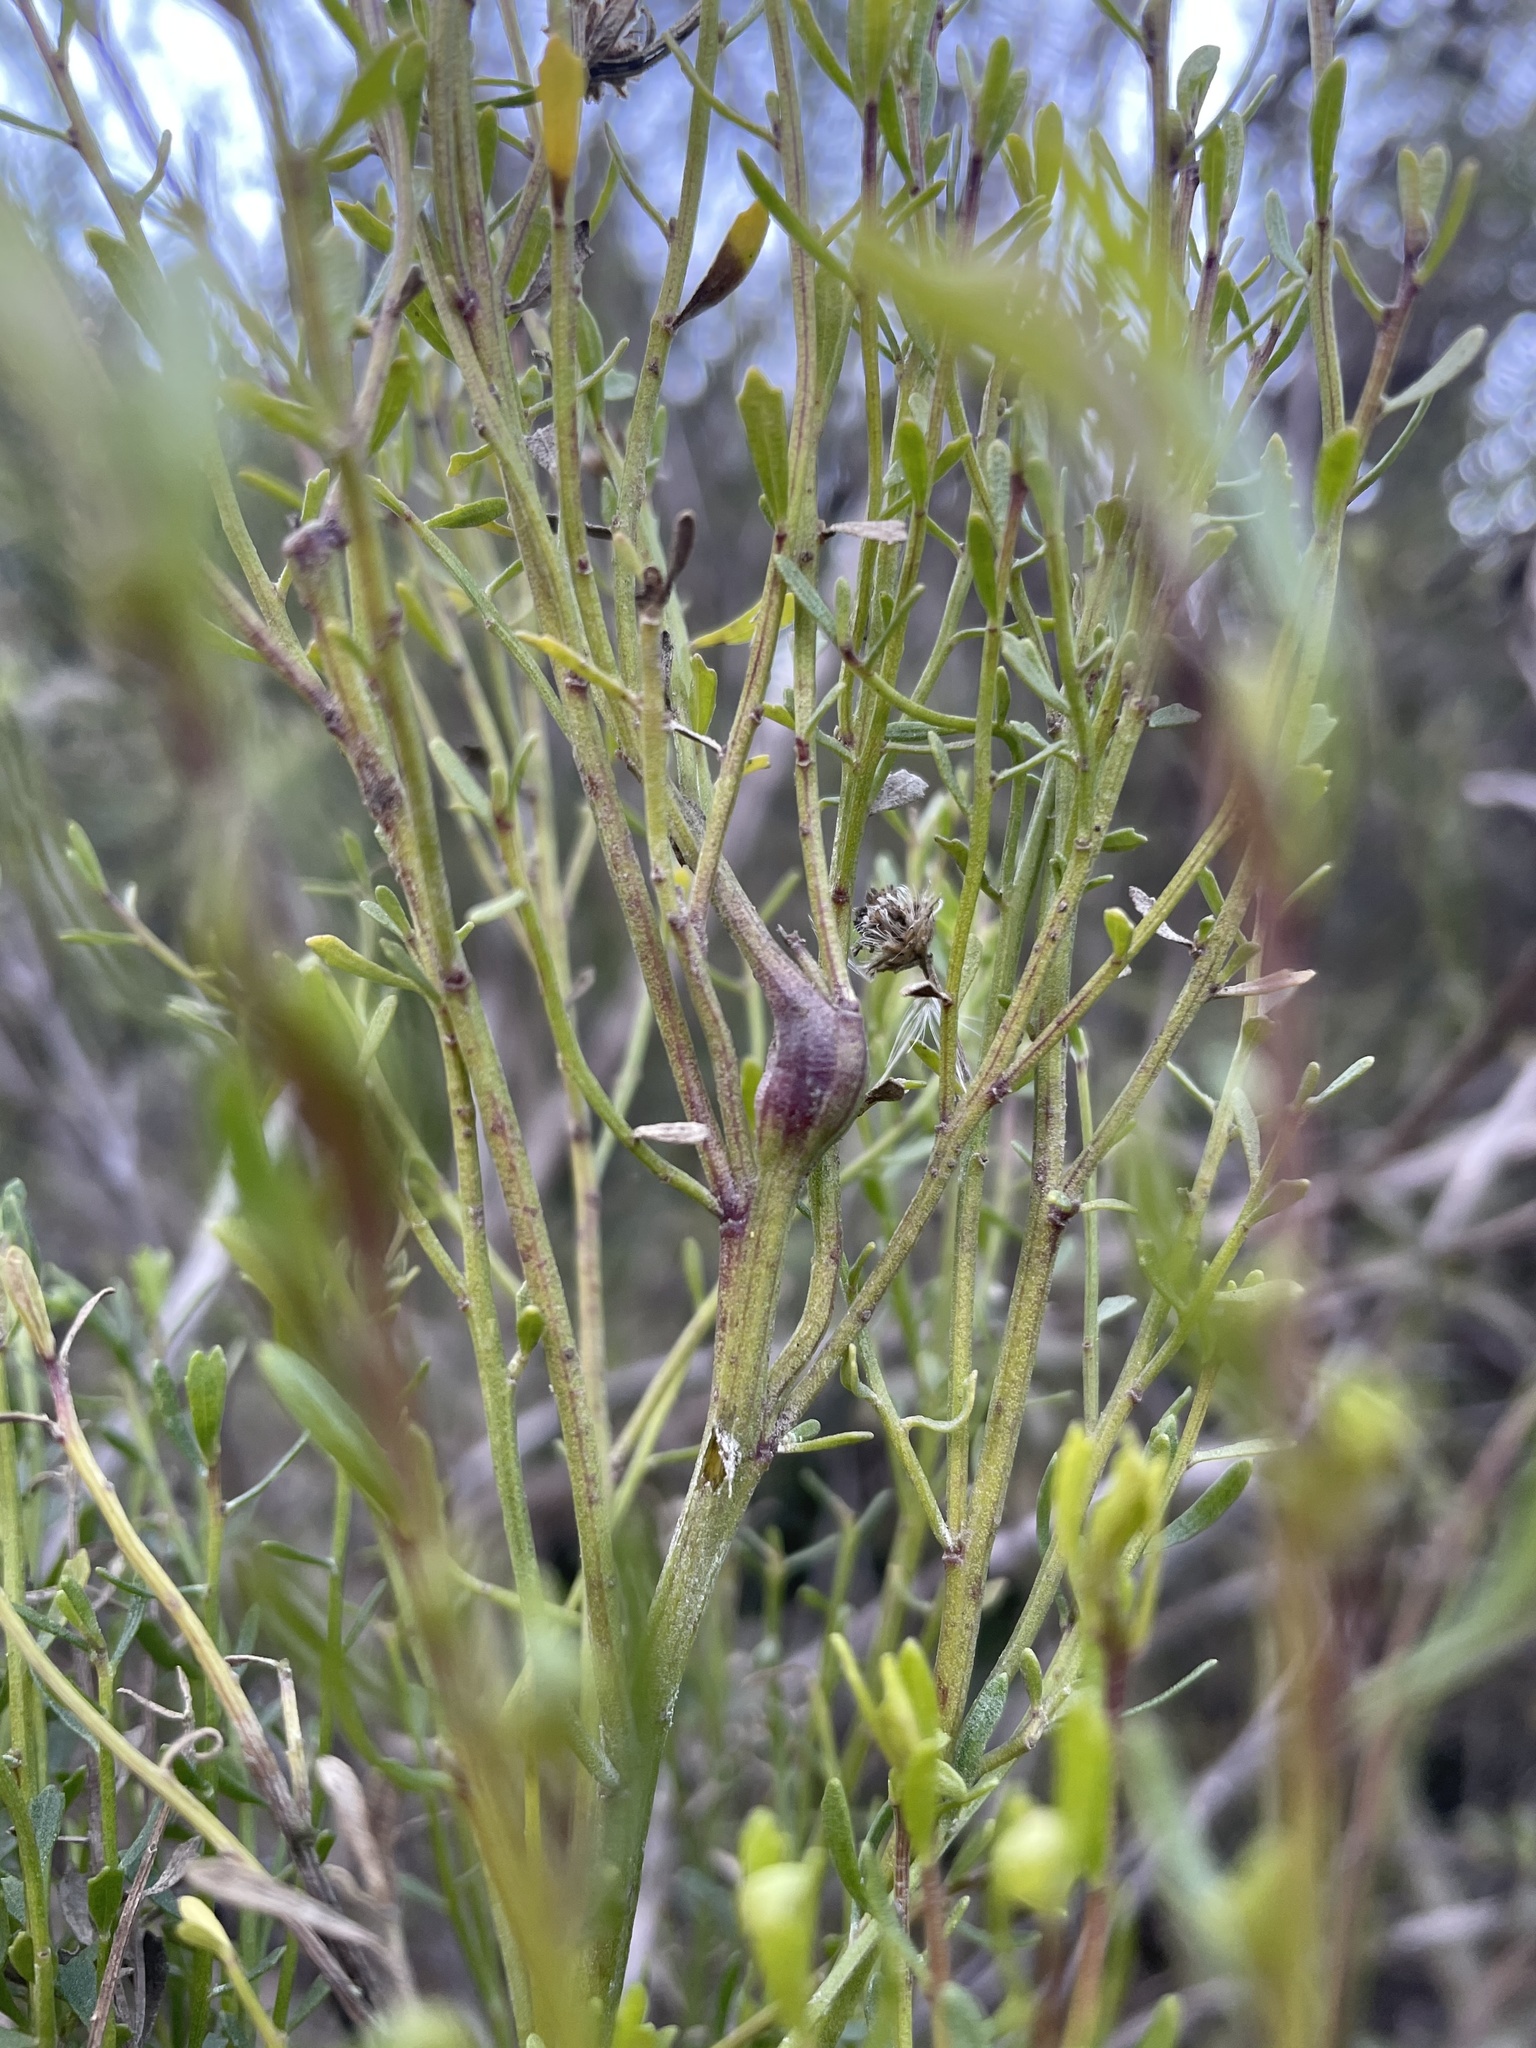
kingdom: Plantae
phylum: Tracheophyta
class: Magnoliopsida
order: Asterales
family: Asteraceae
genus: Baccharis
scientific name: Baccharis pilularis
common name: Coyotebrush
